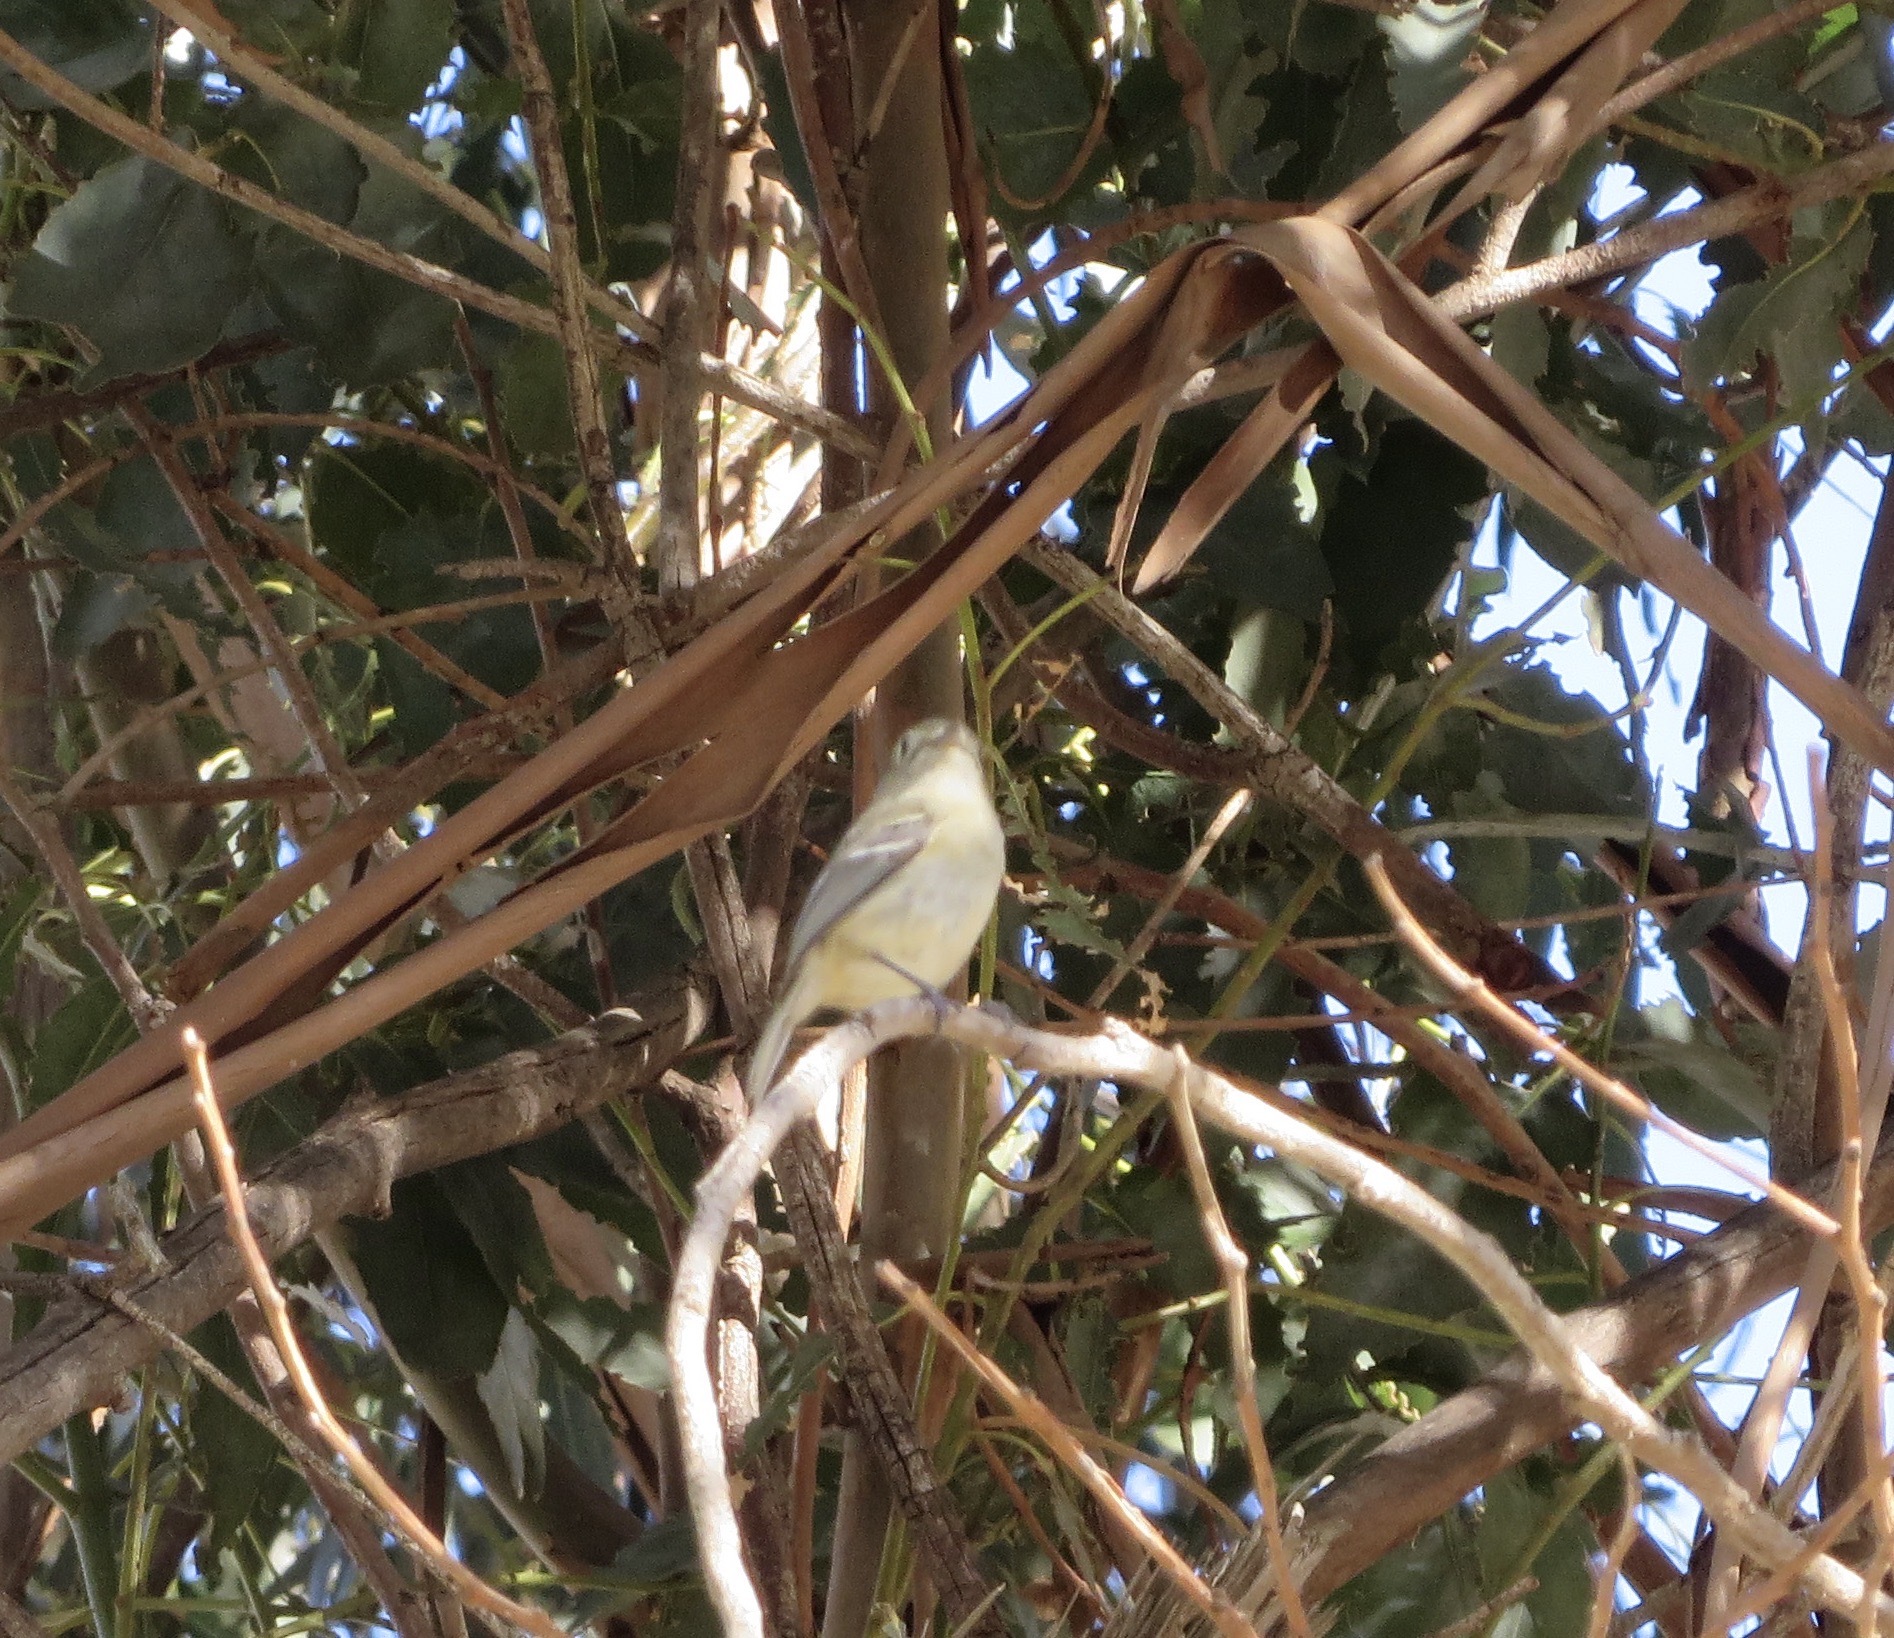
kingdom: Animalia
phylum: Chordata
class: Aves
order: Passeriformes
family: Vireonidae
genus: Vireo
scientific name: Vireo huttoni
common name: Hutton's vireo
